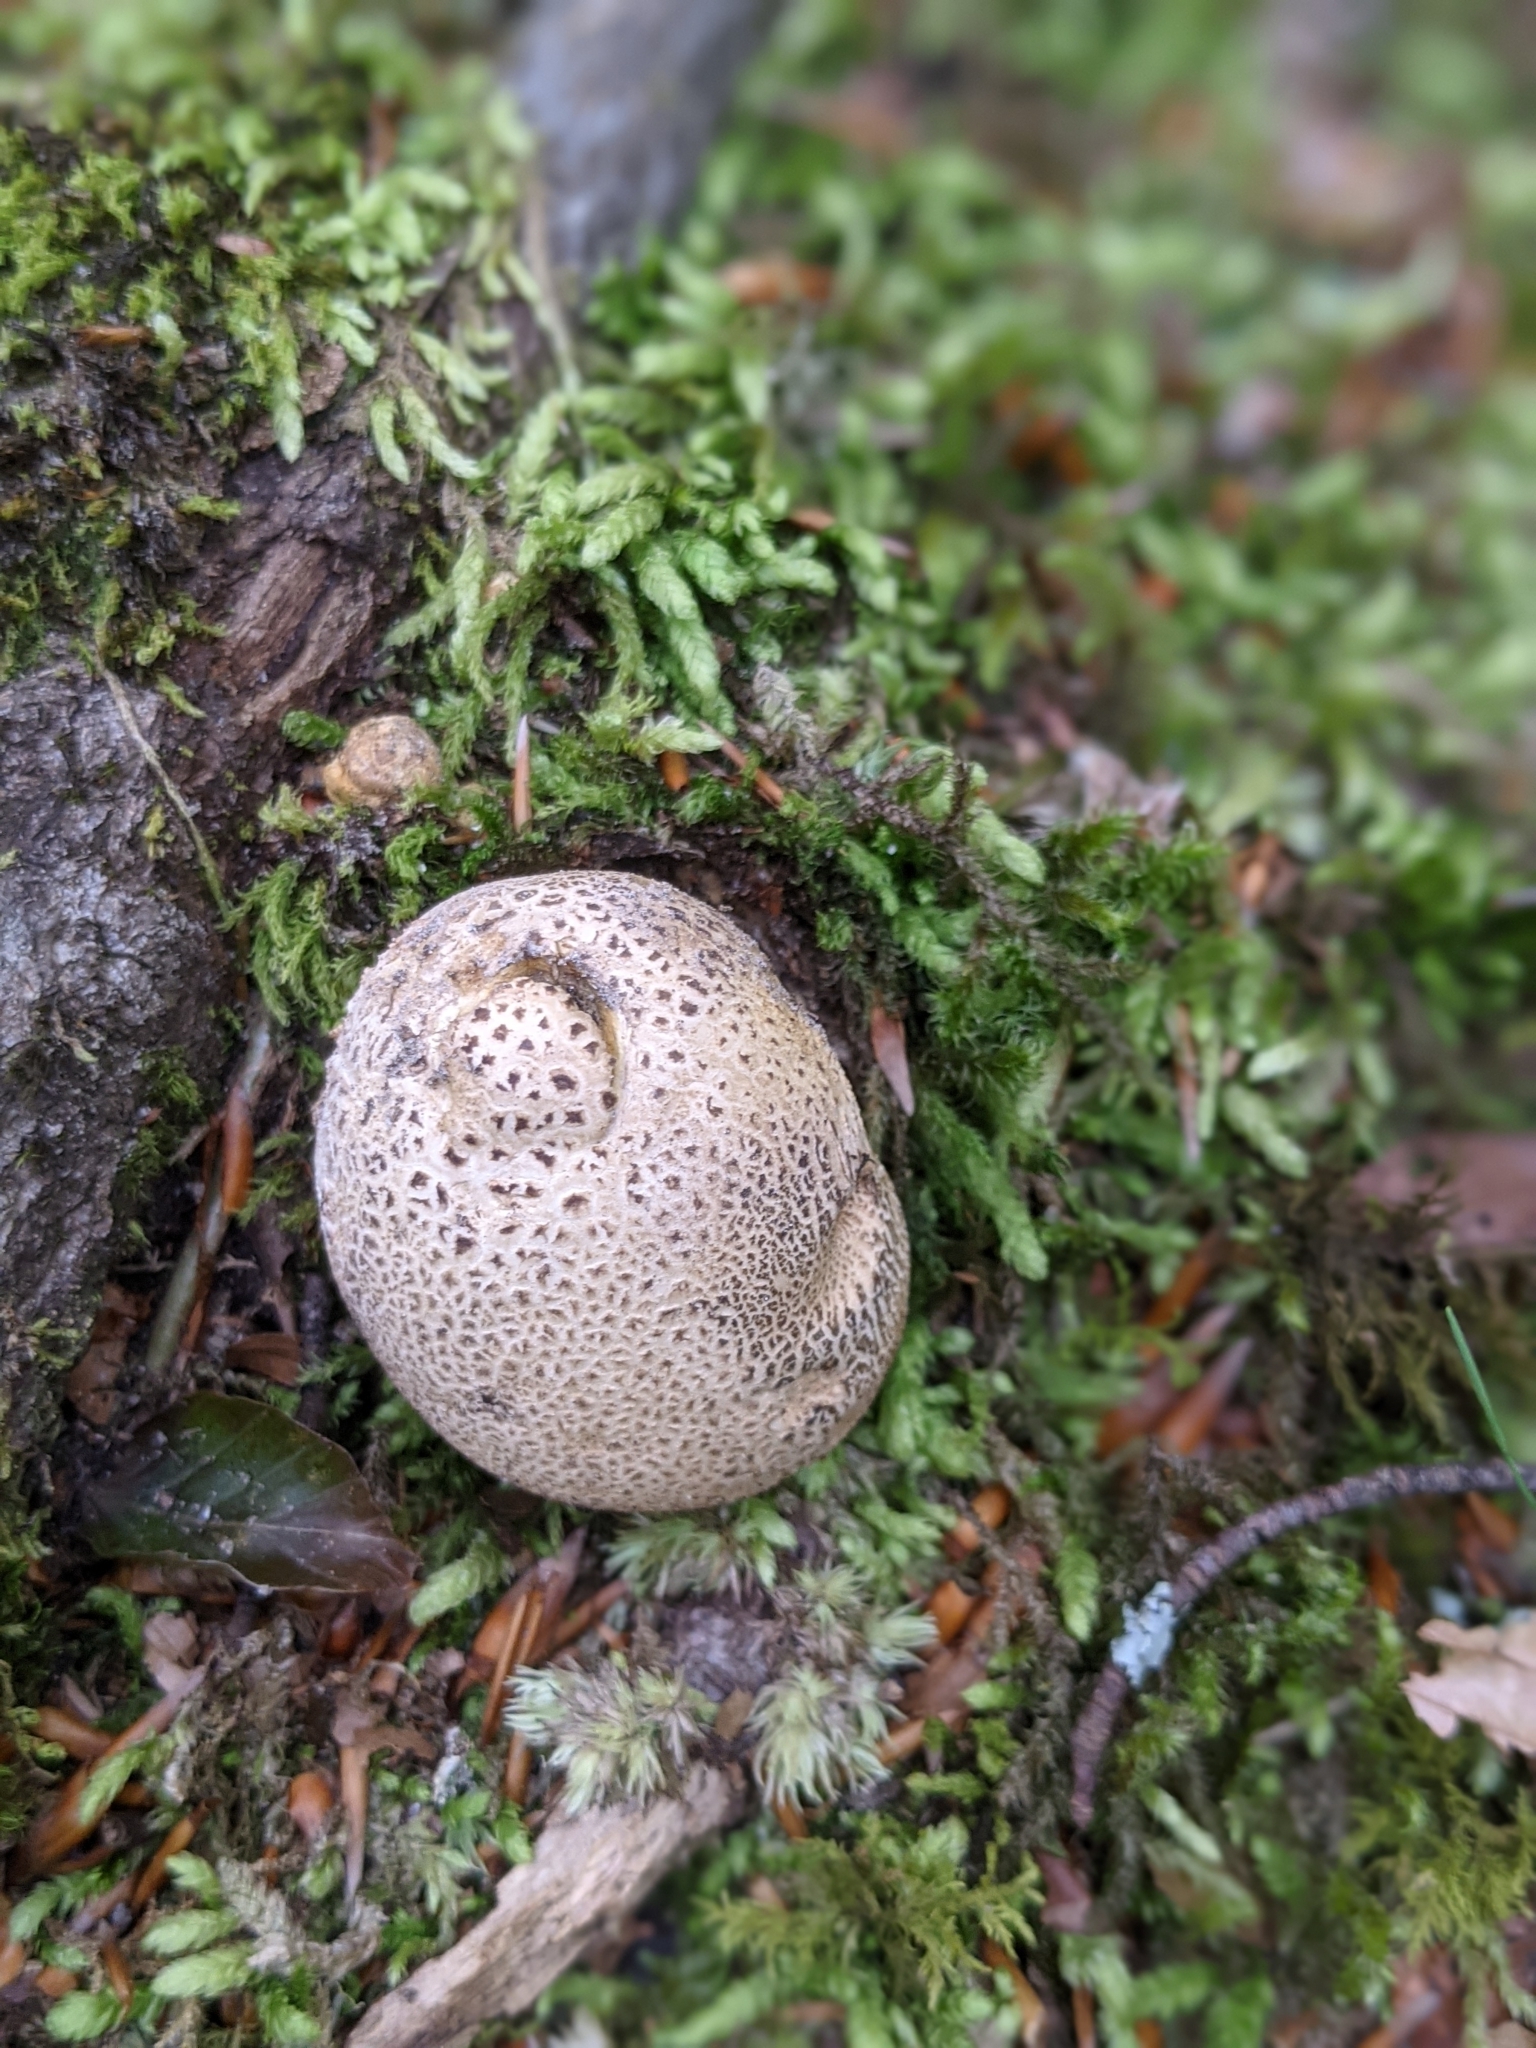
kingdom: Fungi
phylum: Basidiomycota
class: Agaricomycetes
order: Boletales
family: Sclerodermataceae
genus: Scleroderma
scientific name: Scleroderma citrinum
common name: Common earthball
